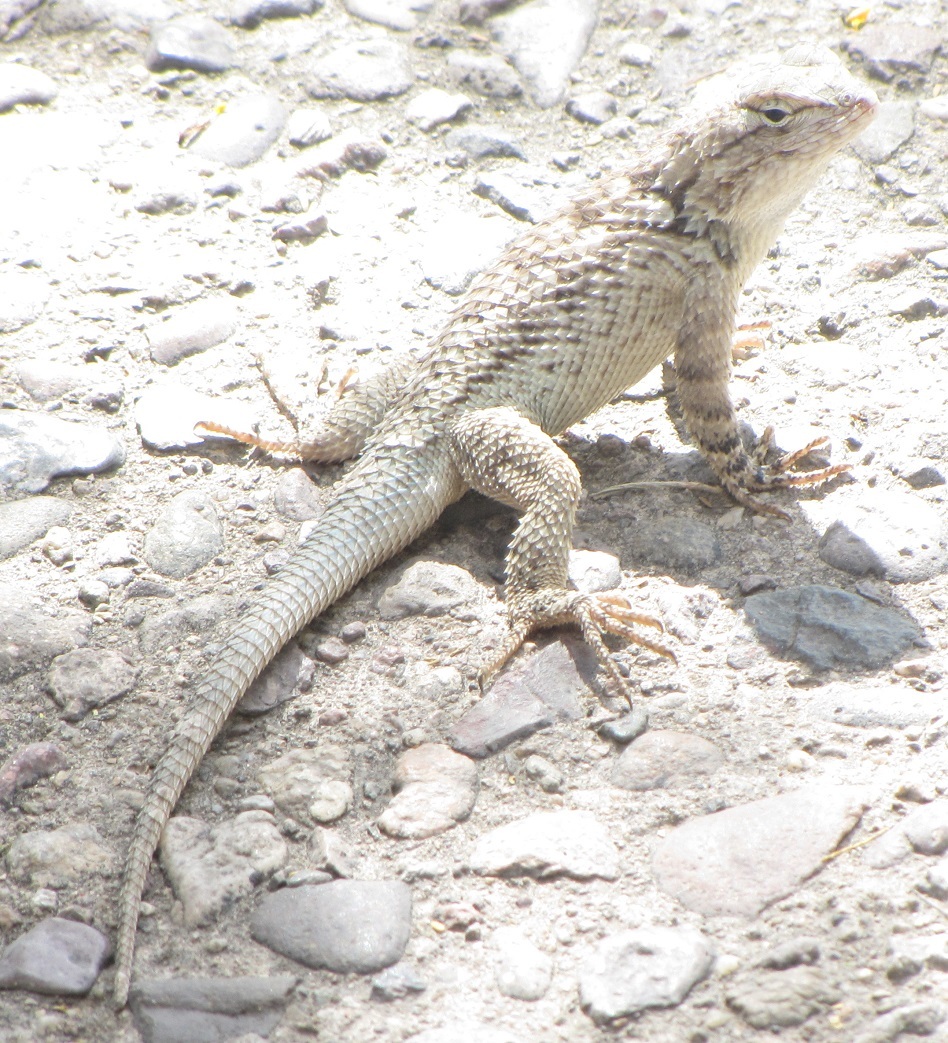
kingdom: Animalia
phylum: Chordata
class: Squamata
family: Phrynosomatidae
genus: Sceloporus
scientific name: Sceloporus clarkii
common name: Clark's spiny lizard
